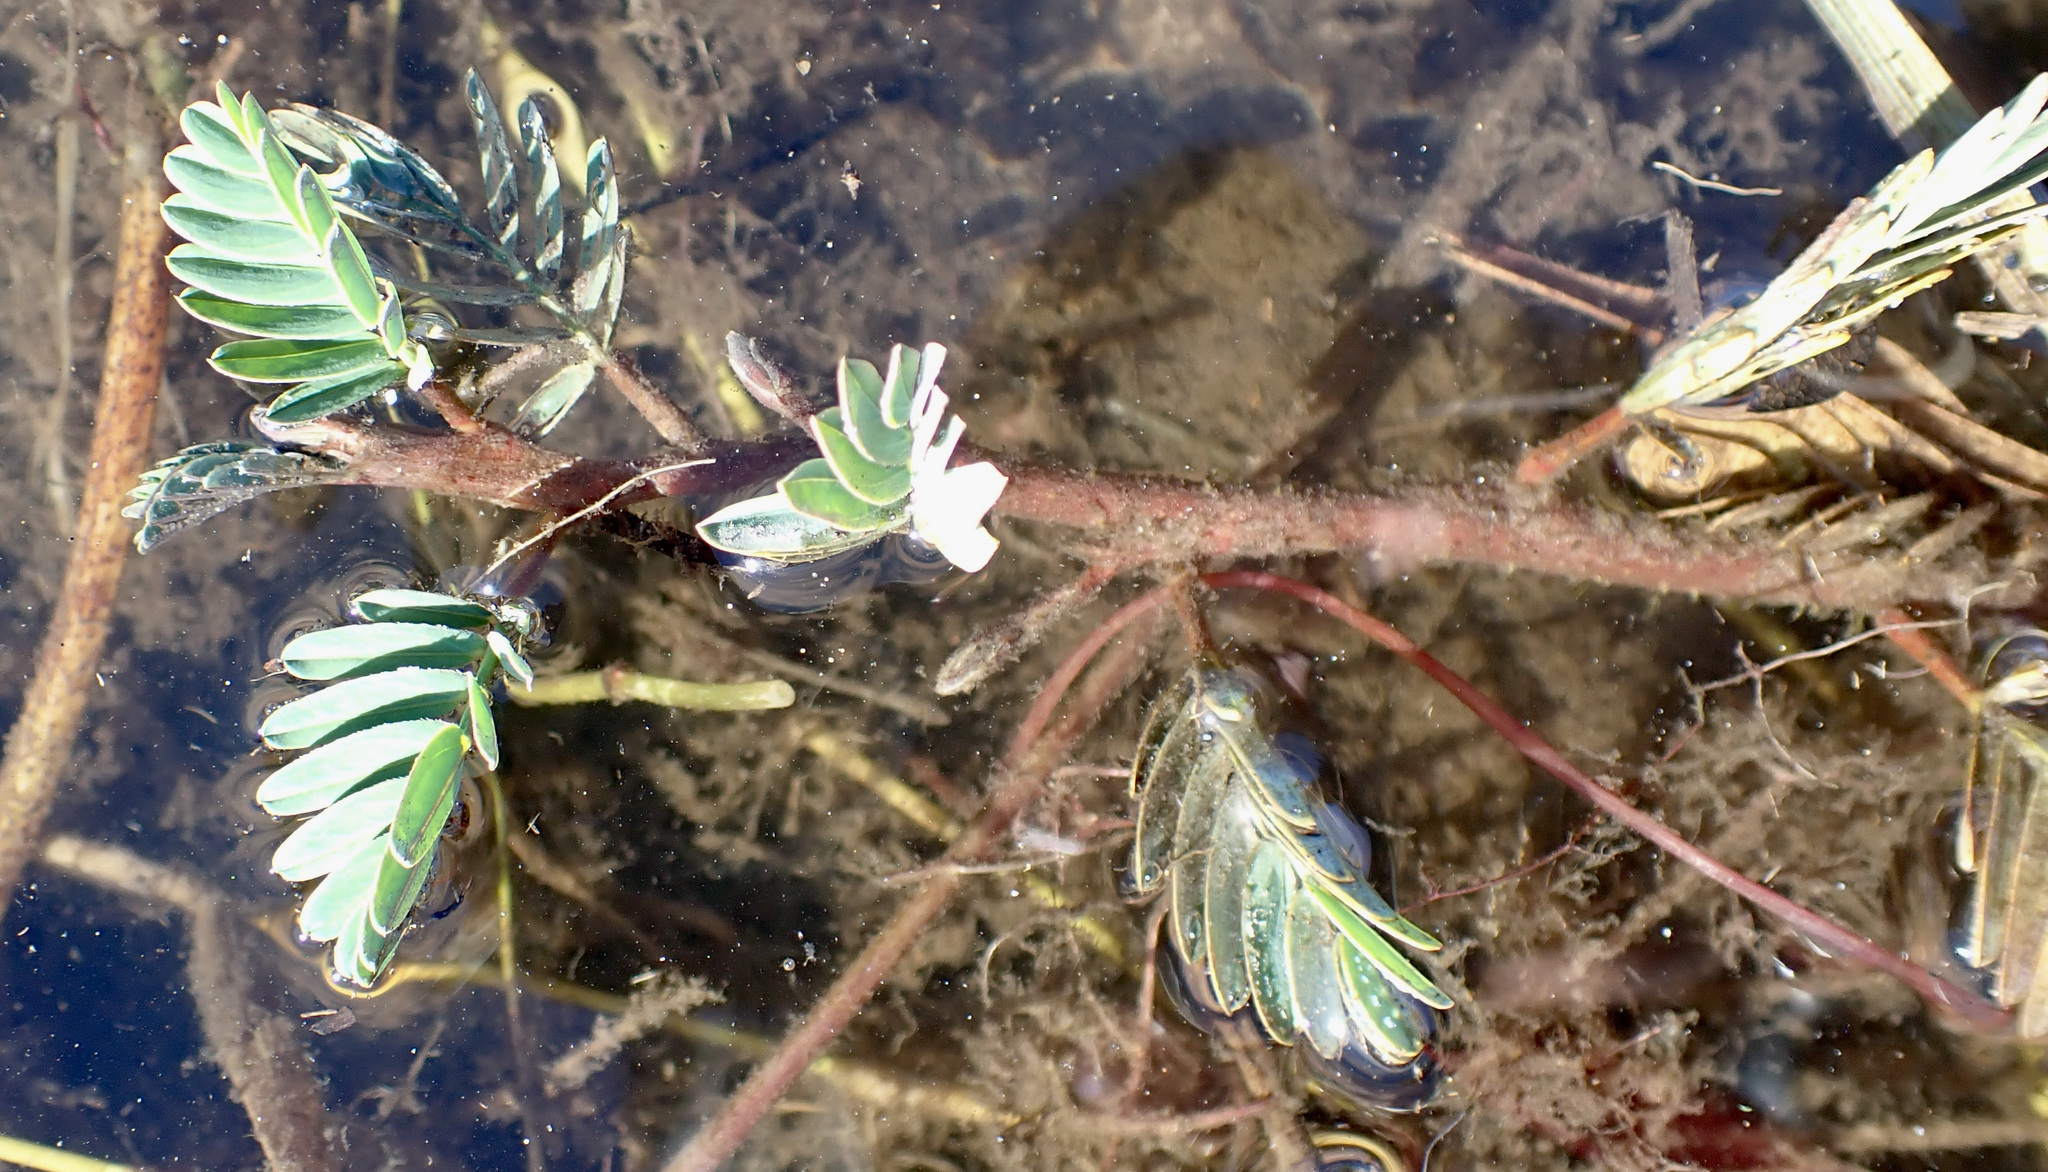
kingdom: Plantae
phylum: Tracheophyta
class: Magnoliopsida
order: Fabales
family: Fabaceae
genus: Aeschynomene
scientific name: Aeschynomene fluitans
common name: Giant water sensitive plant
